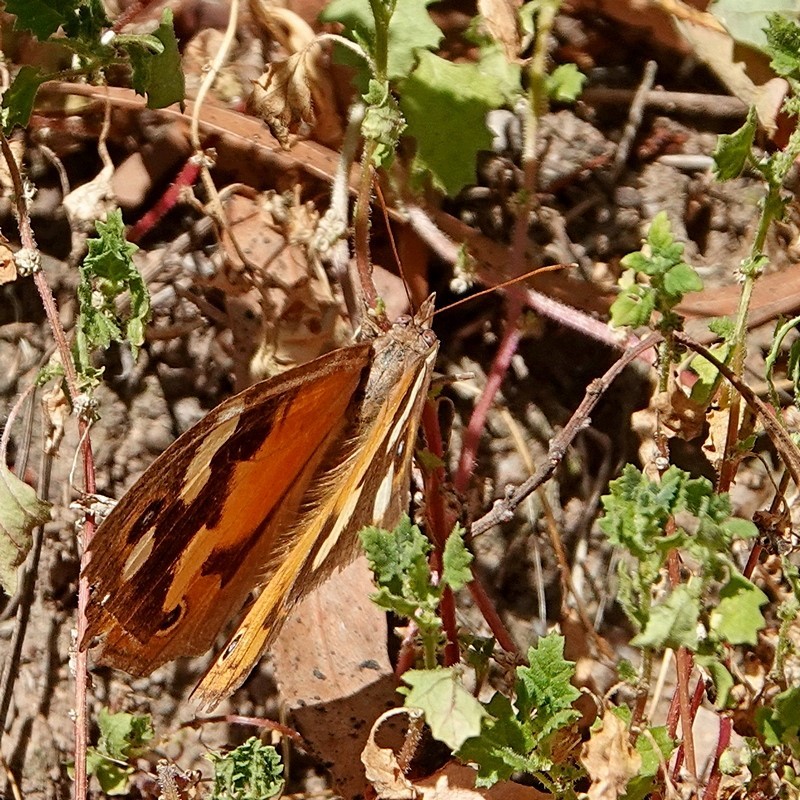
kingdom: Animalia
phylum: Arthropoda
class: Insecta
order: Lepidoptera
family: Nymphalidae
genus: Heteronympha
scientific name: Heteronympha merope
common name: Common brown
